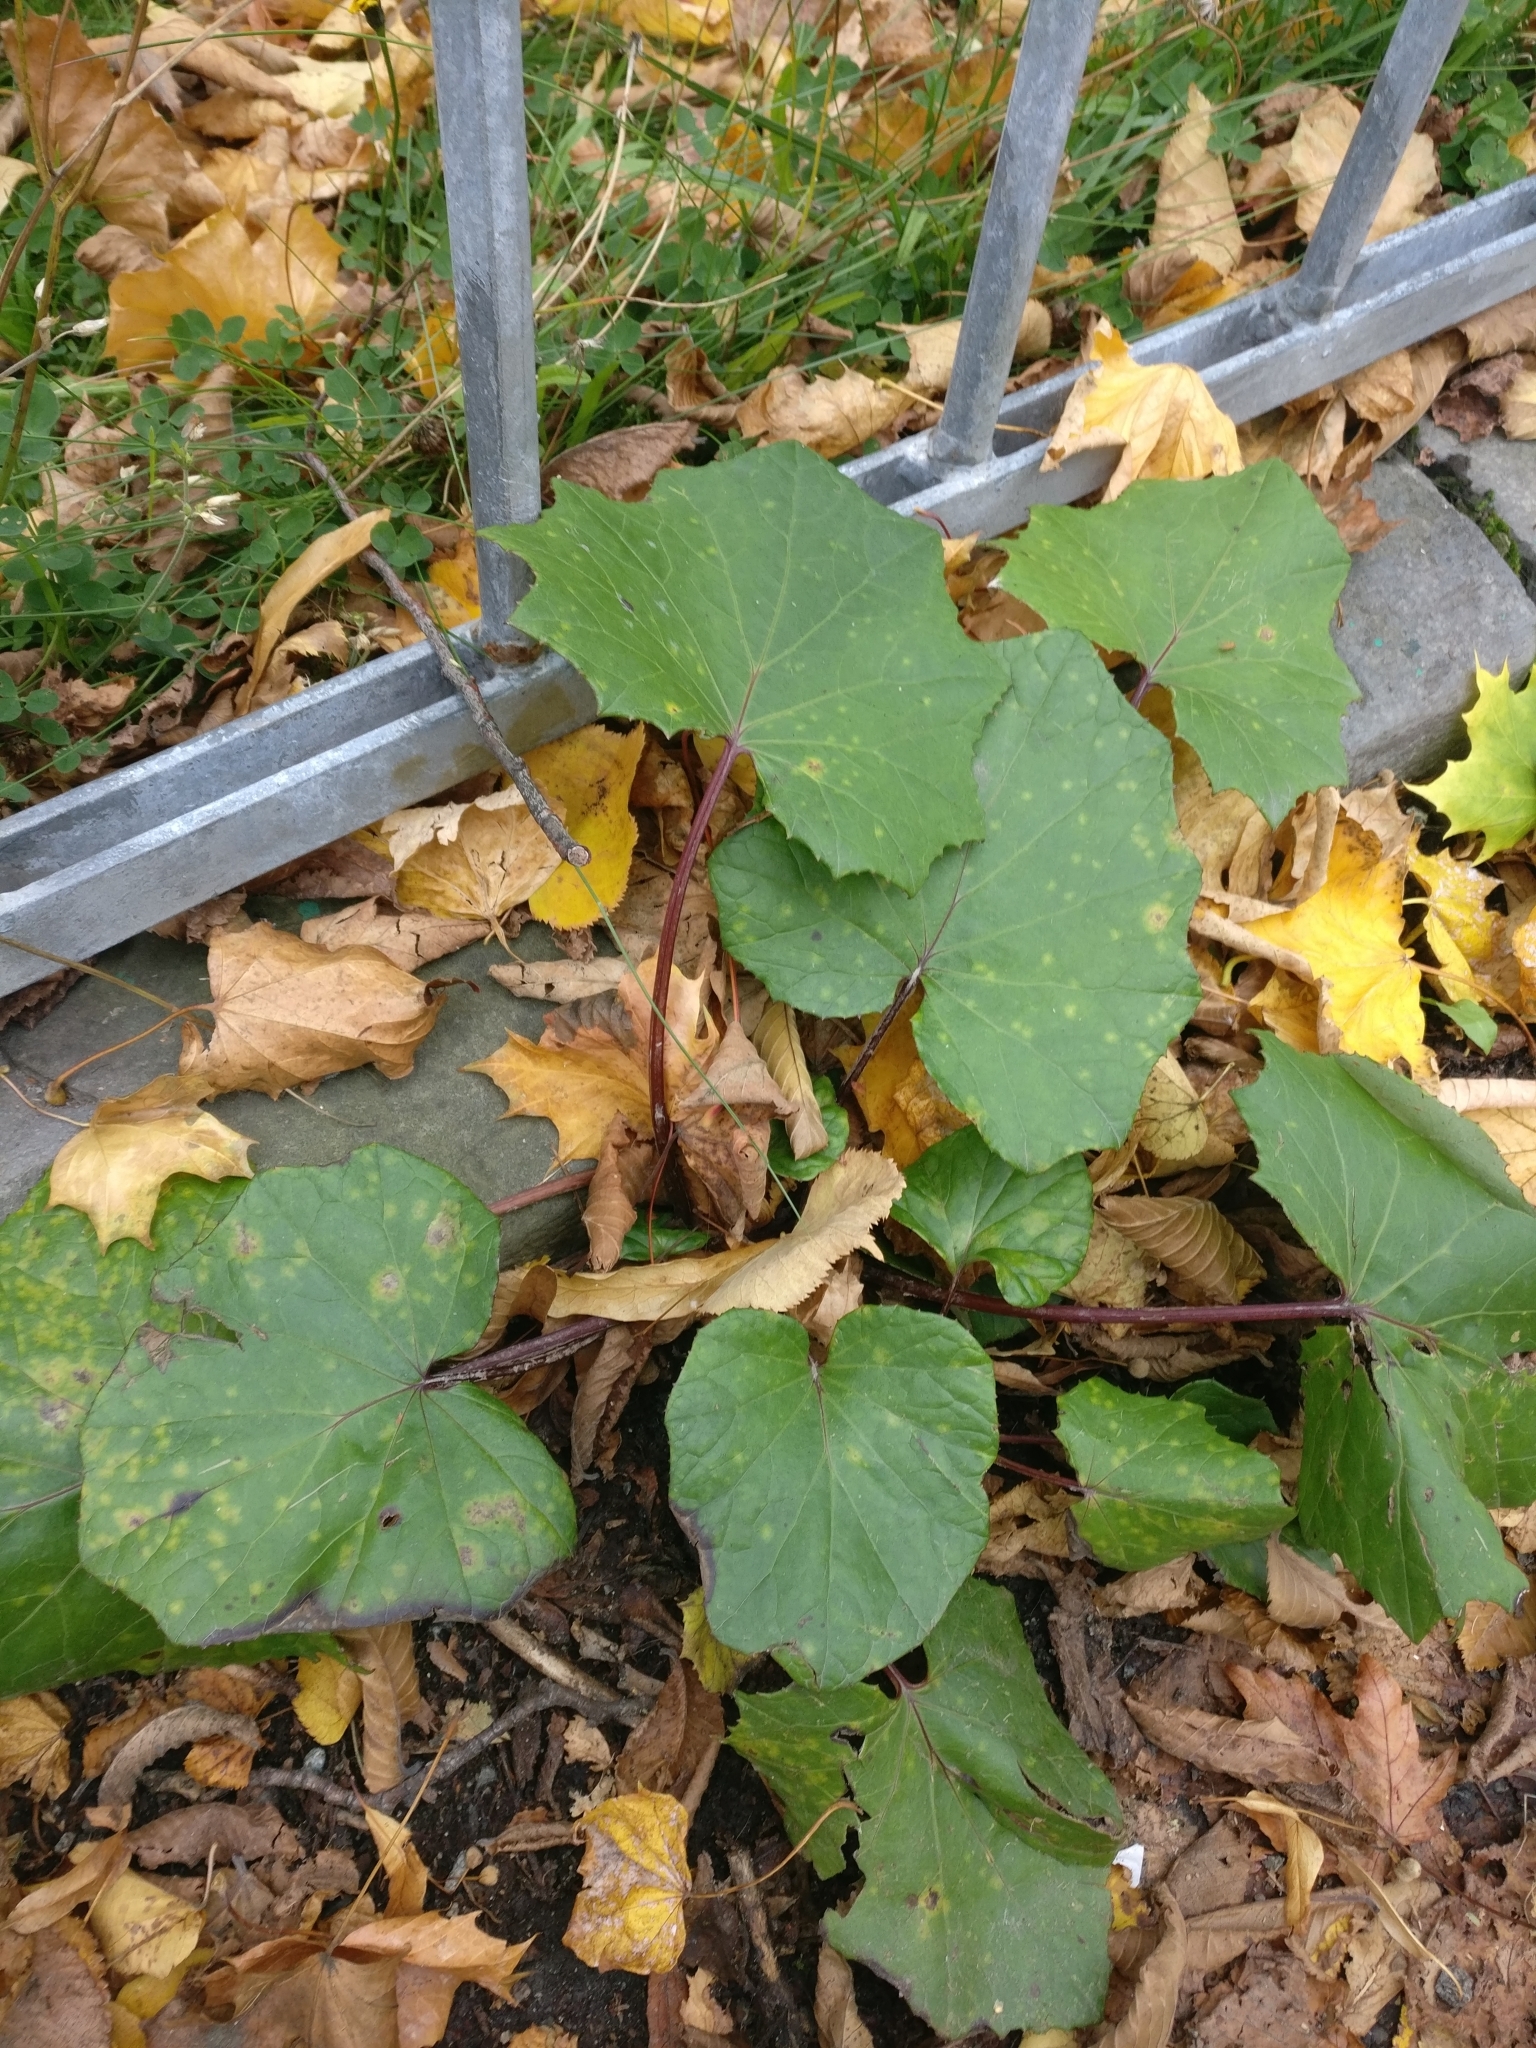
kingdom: Plantae
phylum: Tracheophyta
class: Magnoliopsida
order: Asterales
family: Asteraceae
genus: Tussilago
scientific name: Tussilago farfara
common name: Coltsfoot
